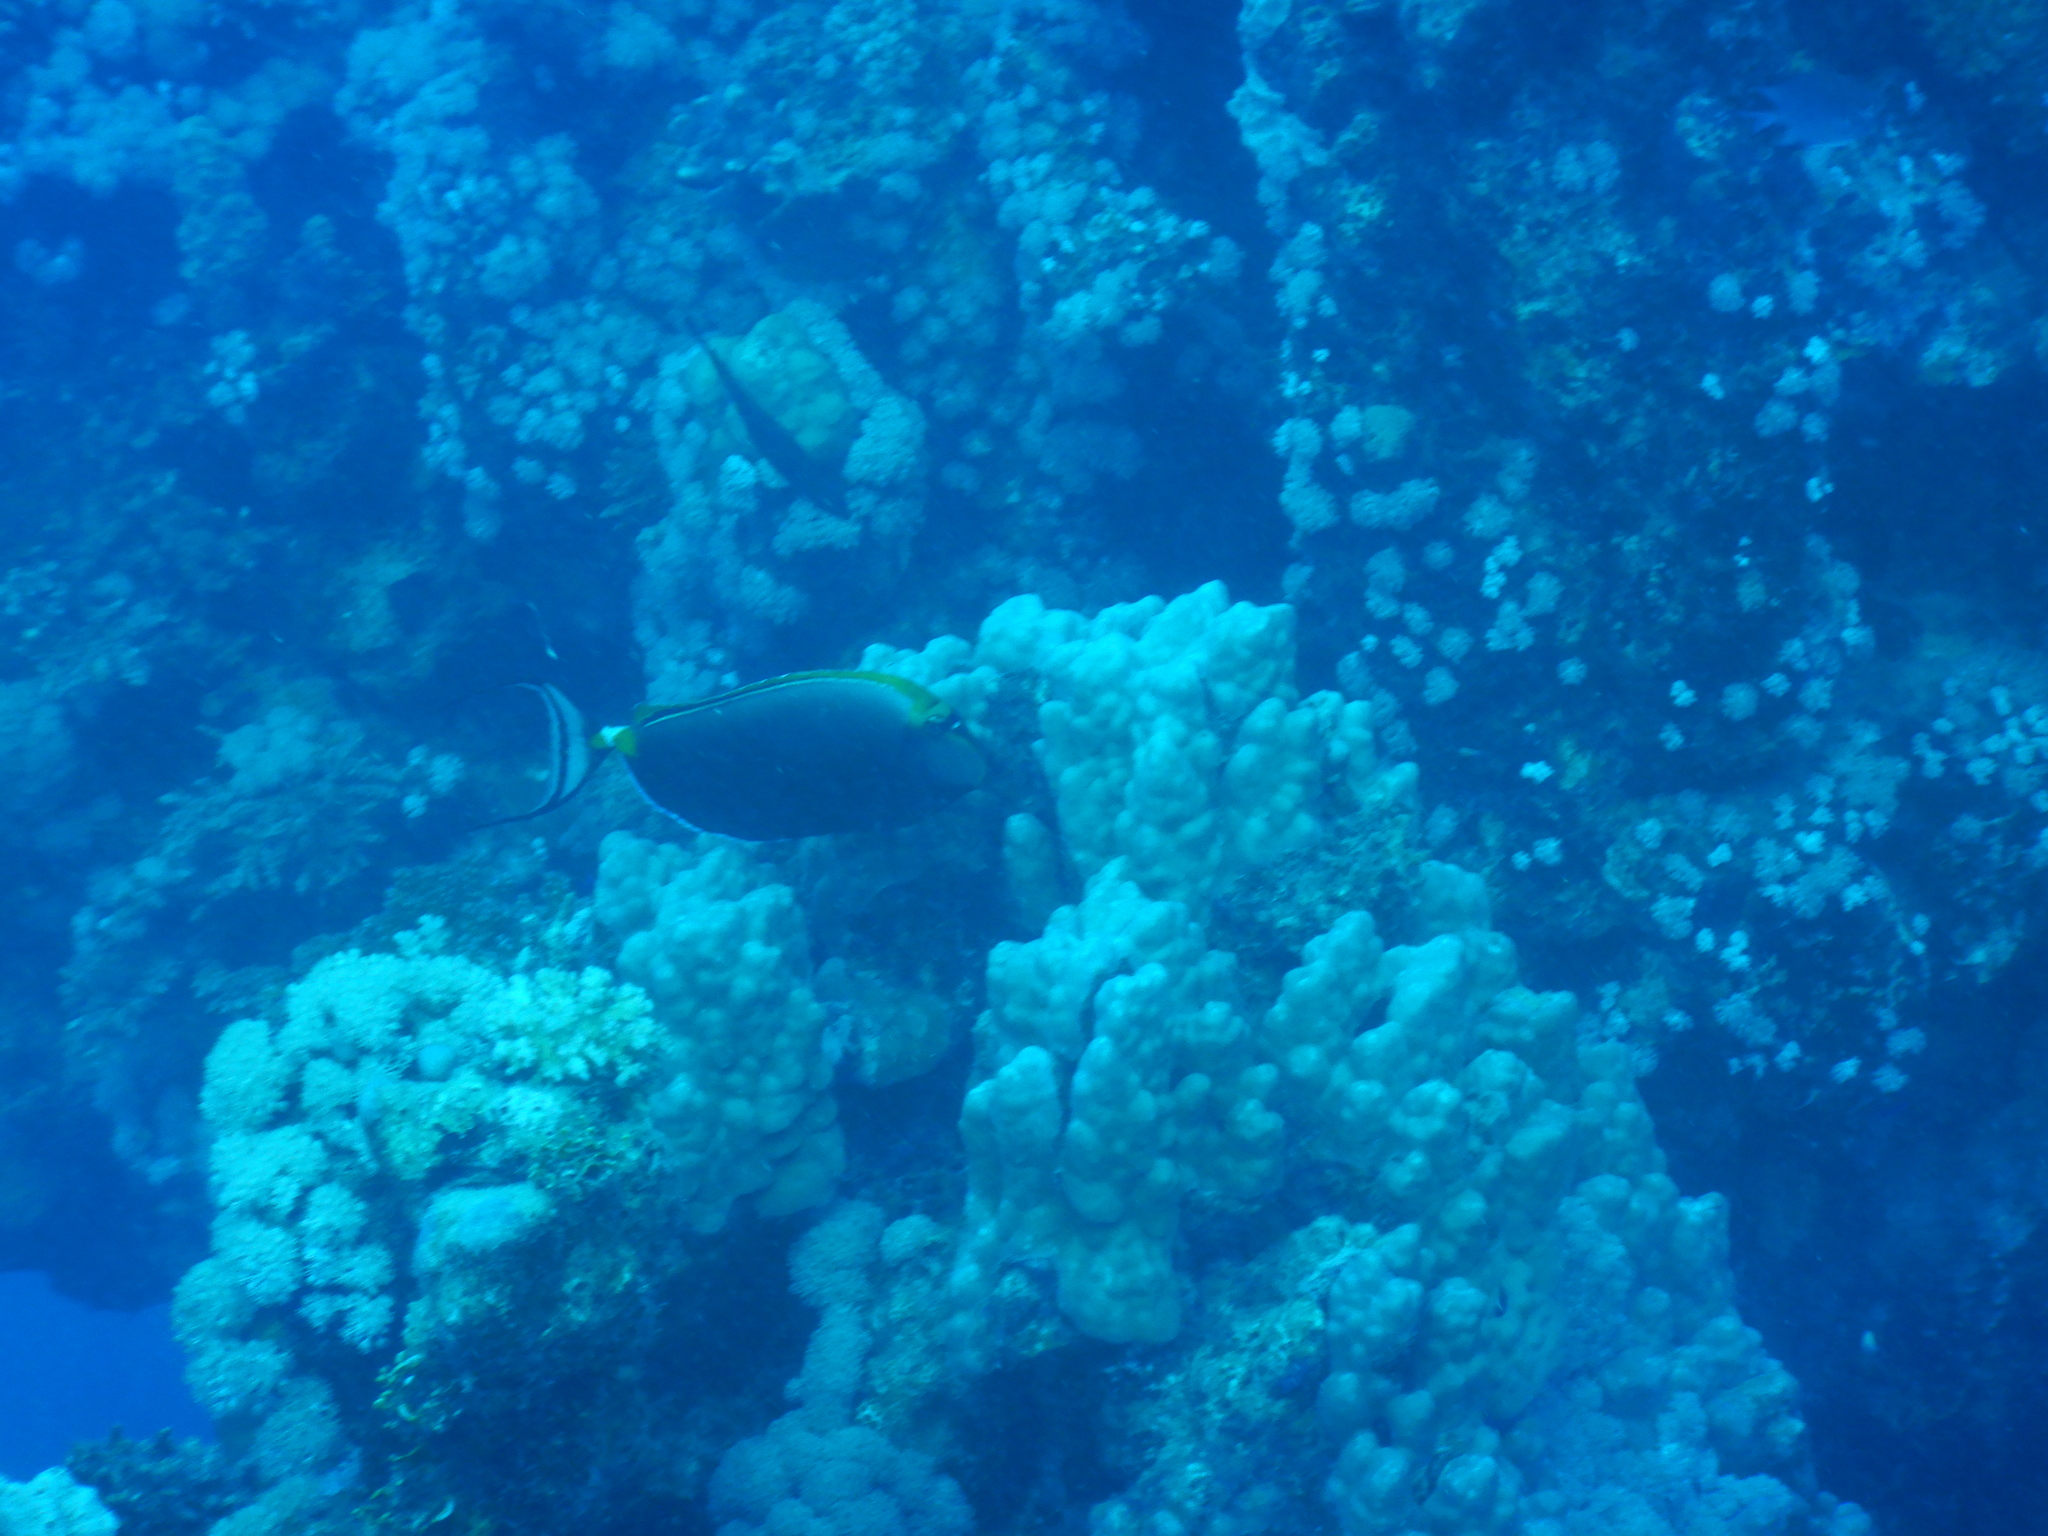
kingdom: Animalia
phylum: Chordata
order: Perciformes
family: Acanthuridae
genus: Naso
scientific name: Naso elegans
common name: Orangespine unicornfish
